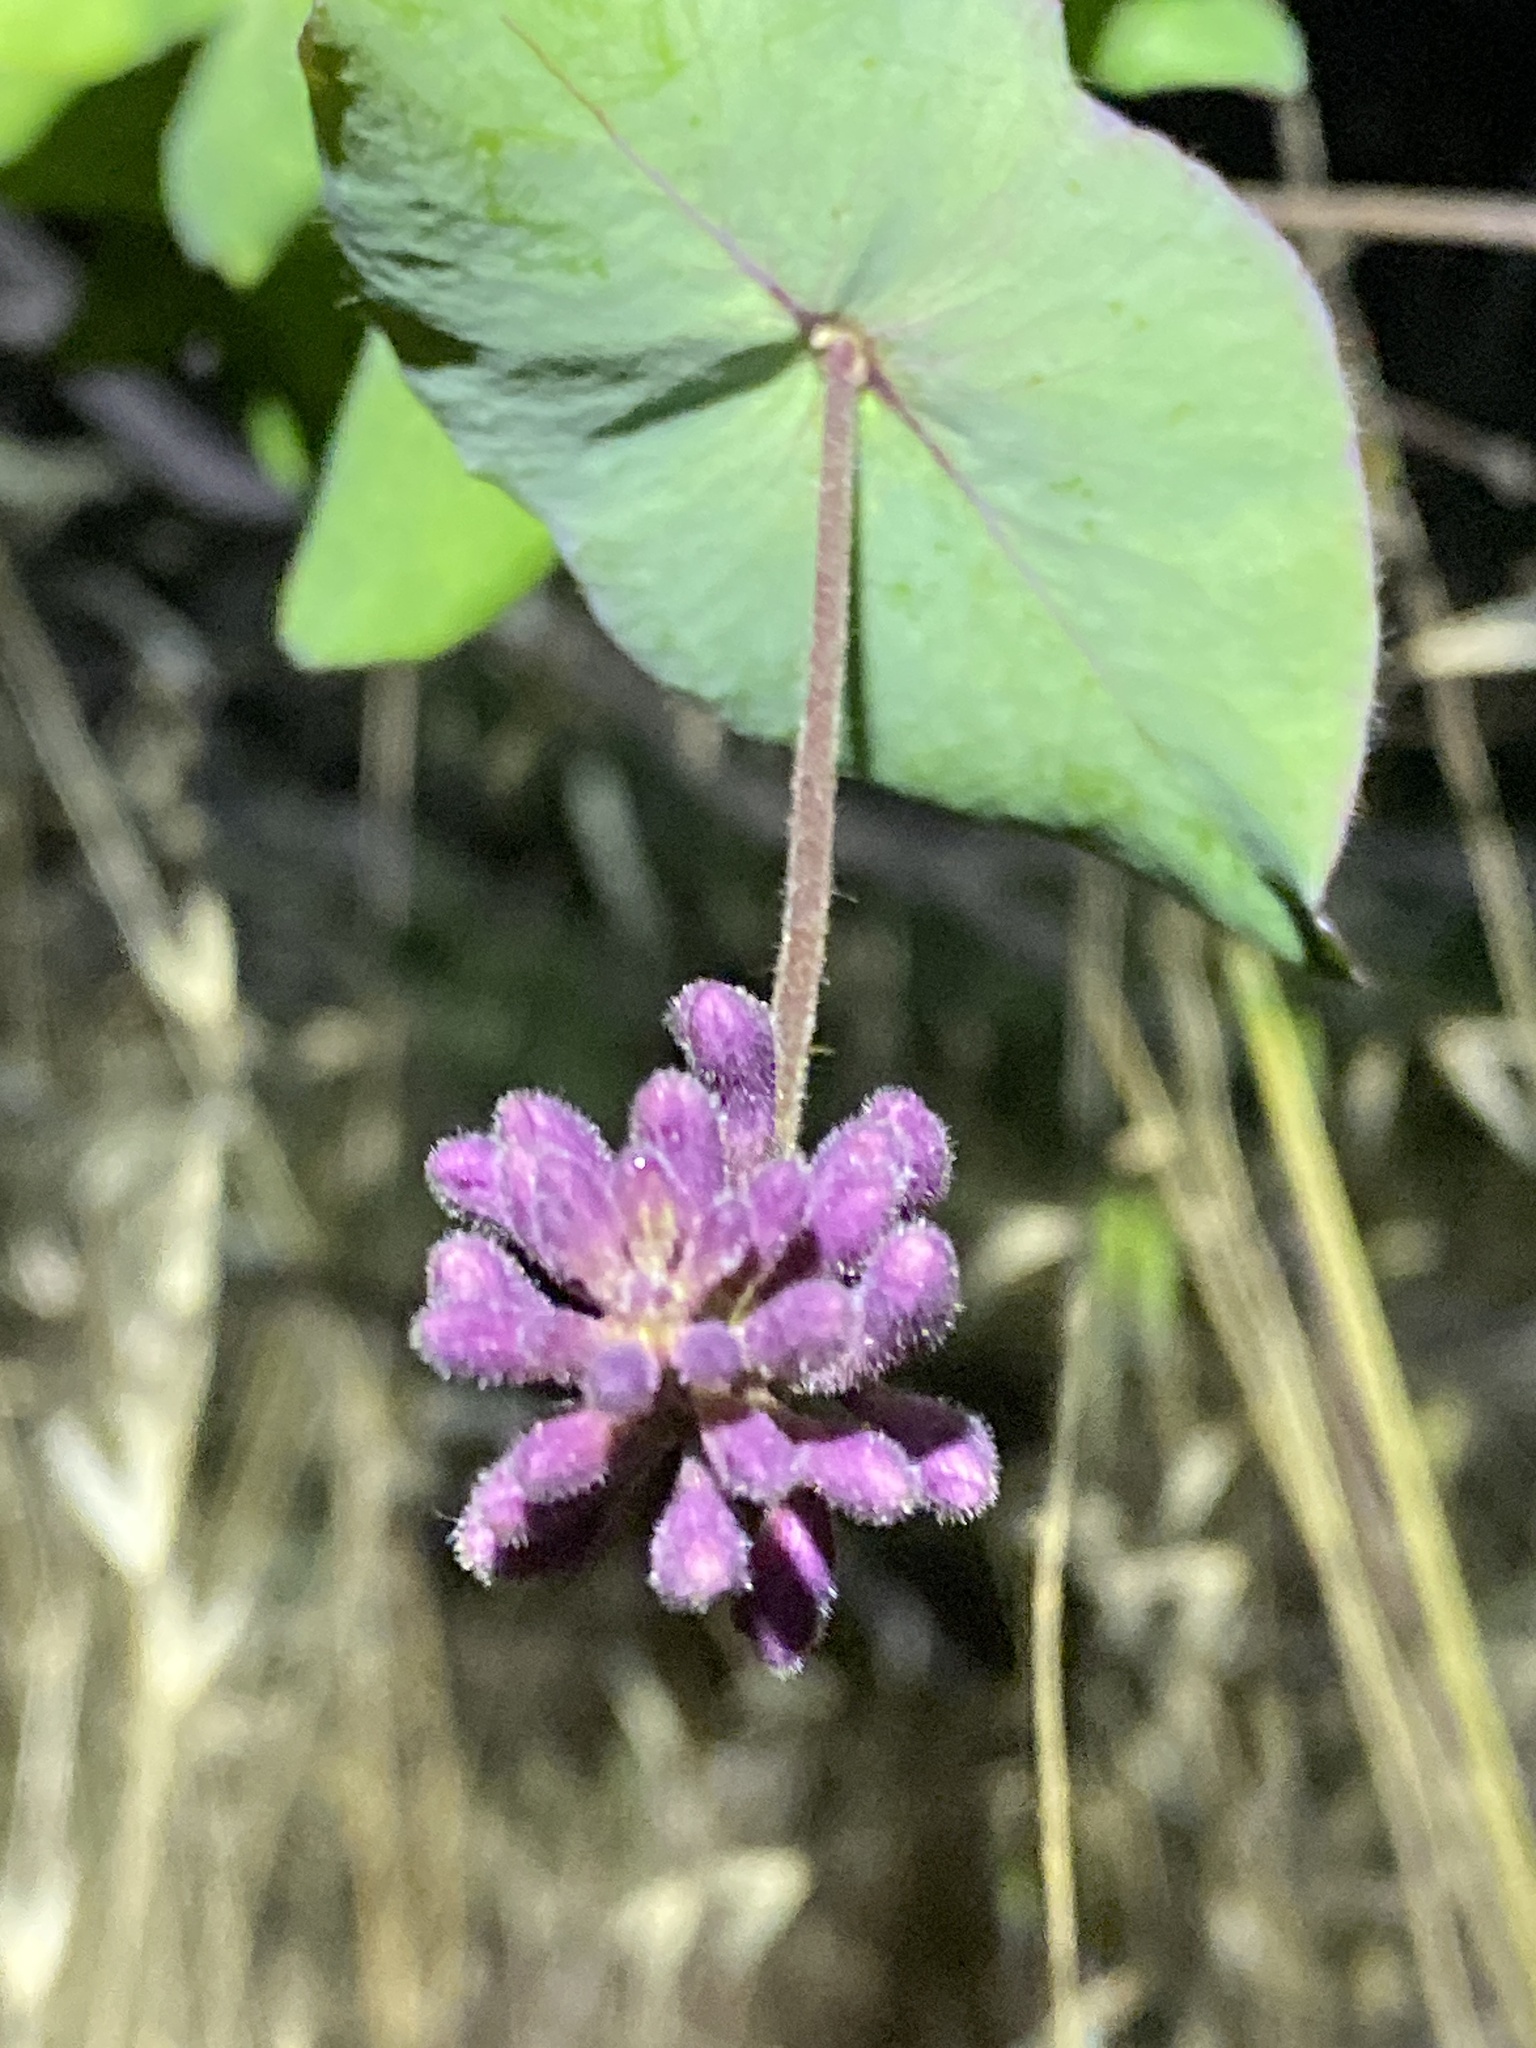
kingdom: Plantae
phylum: Tracheophyta
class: Magnoliopsida
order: Dipsacales
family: Caprifoliaceae
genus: Lonicera
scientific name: Lonicera hispidula
